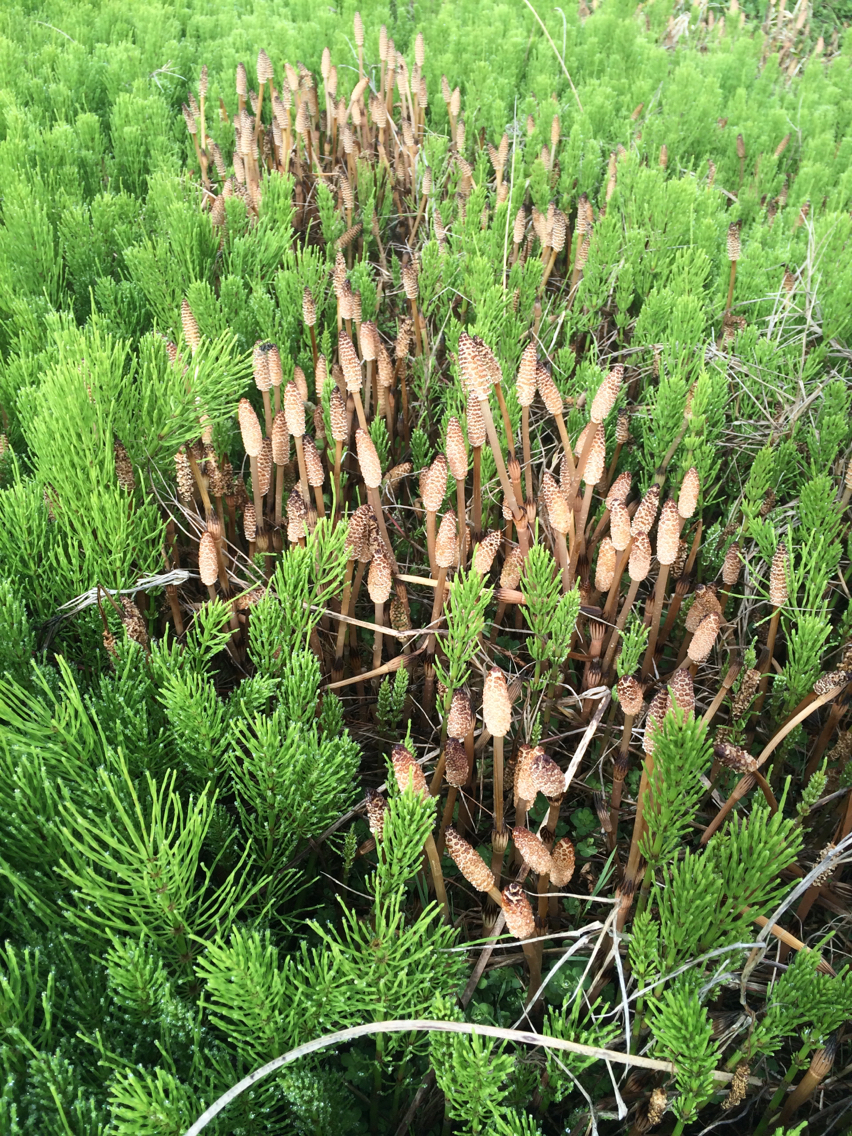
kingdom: Plantae
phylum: Tracheophyta
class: Polypodiopsida
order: Equisetales
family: Equisetaceae
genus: Equisetum
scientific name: Equisetum arvense
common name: Field horsetail
